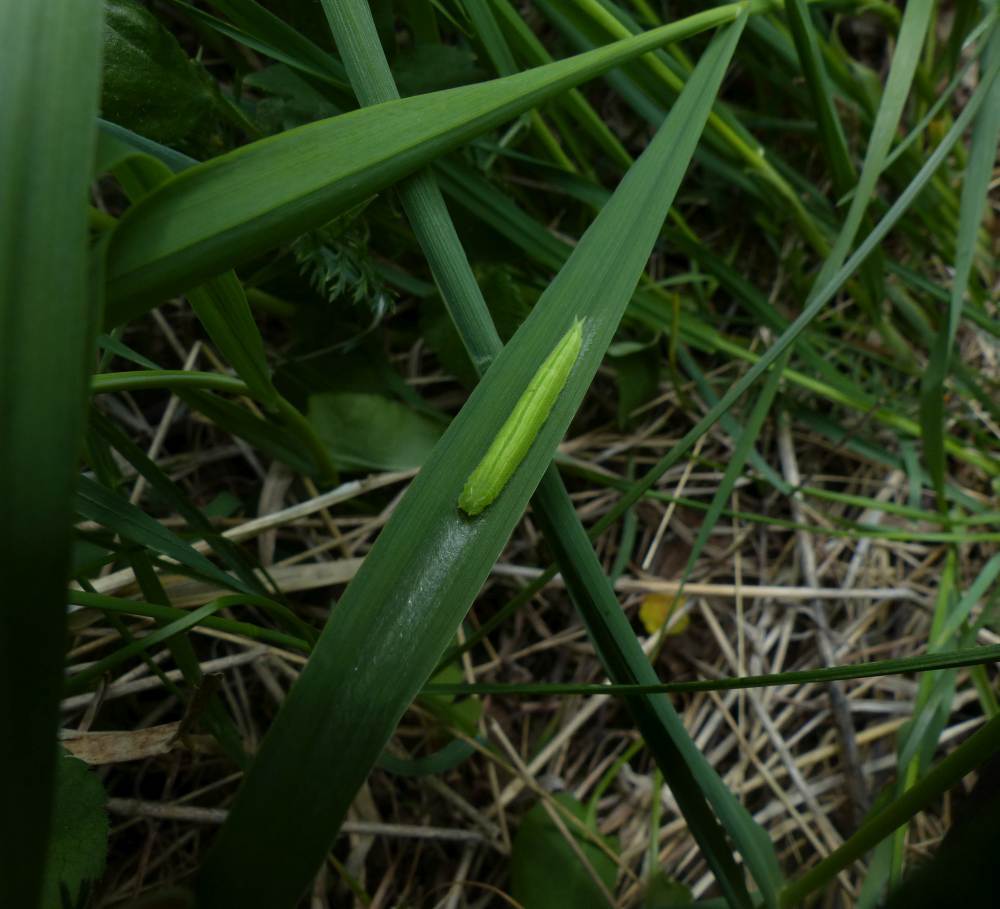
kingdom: Animalia
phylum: Arthropoda
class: Insecta
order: Lepidoptera
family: Nymphalidae
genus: Lethe
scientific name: Lethe anthedon
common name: Northern pearly-eye
